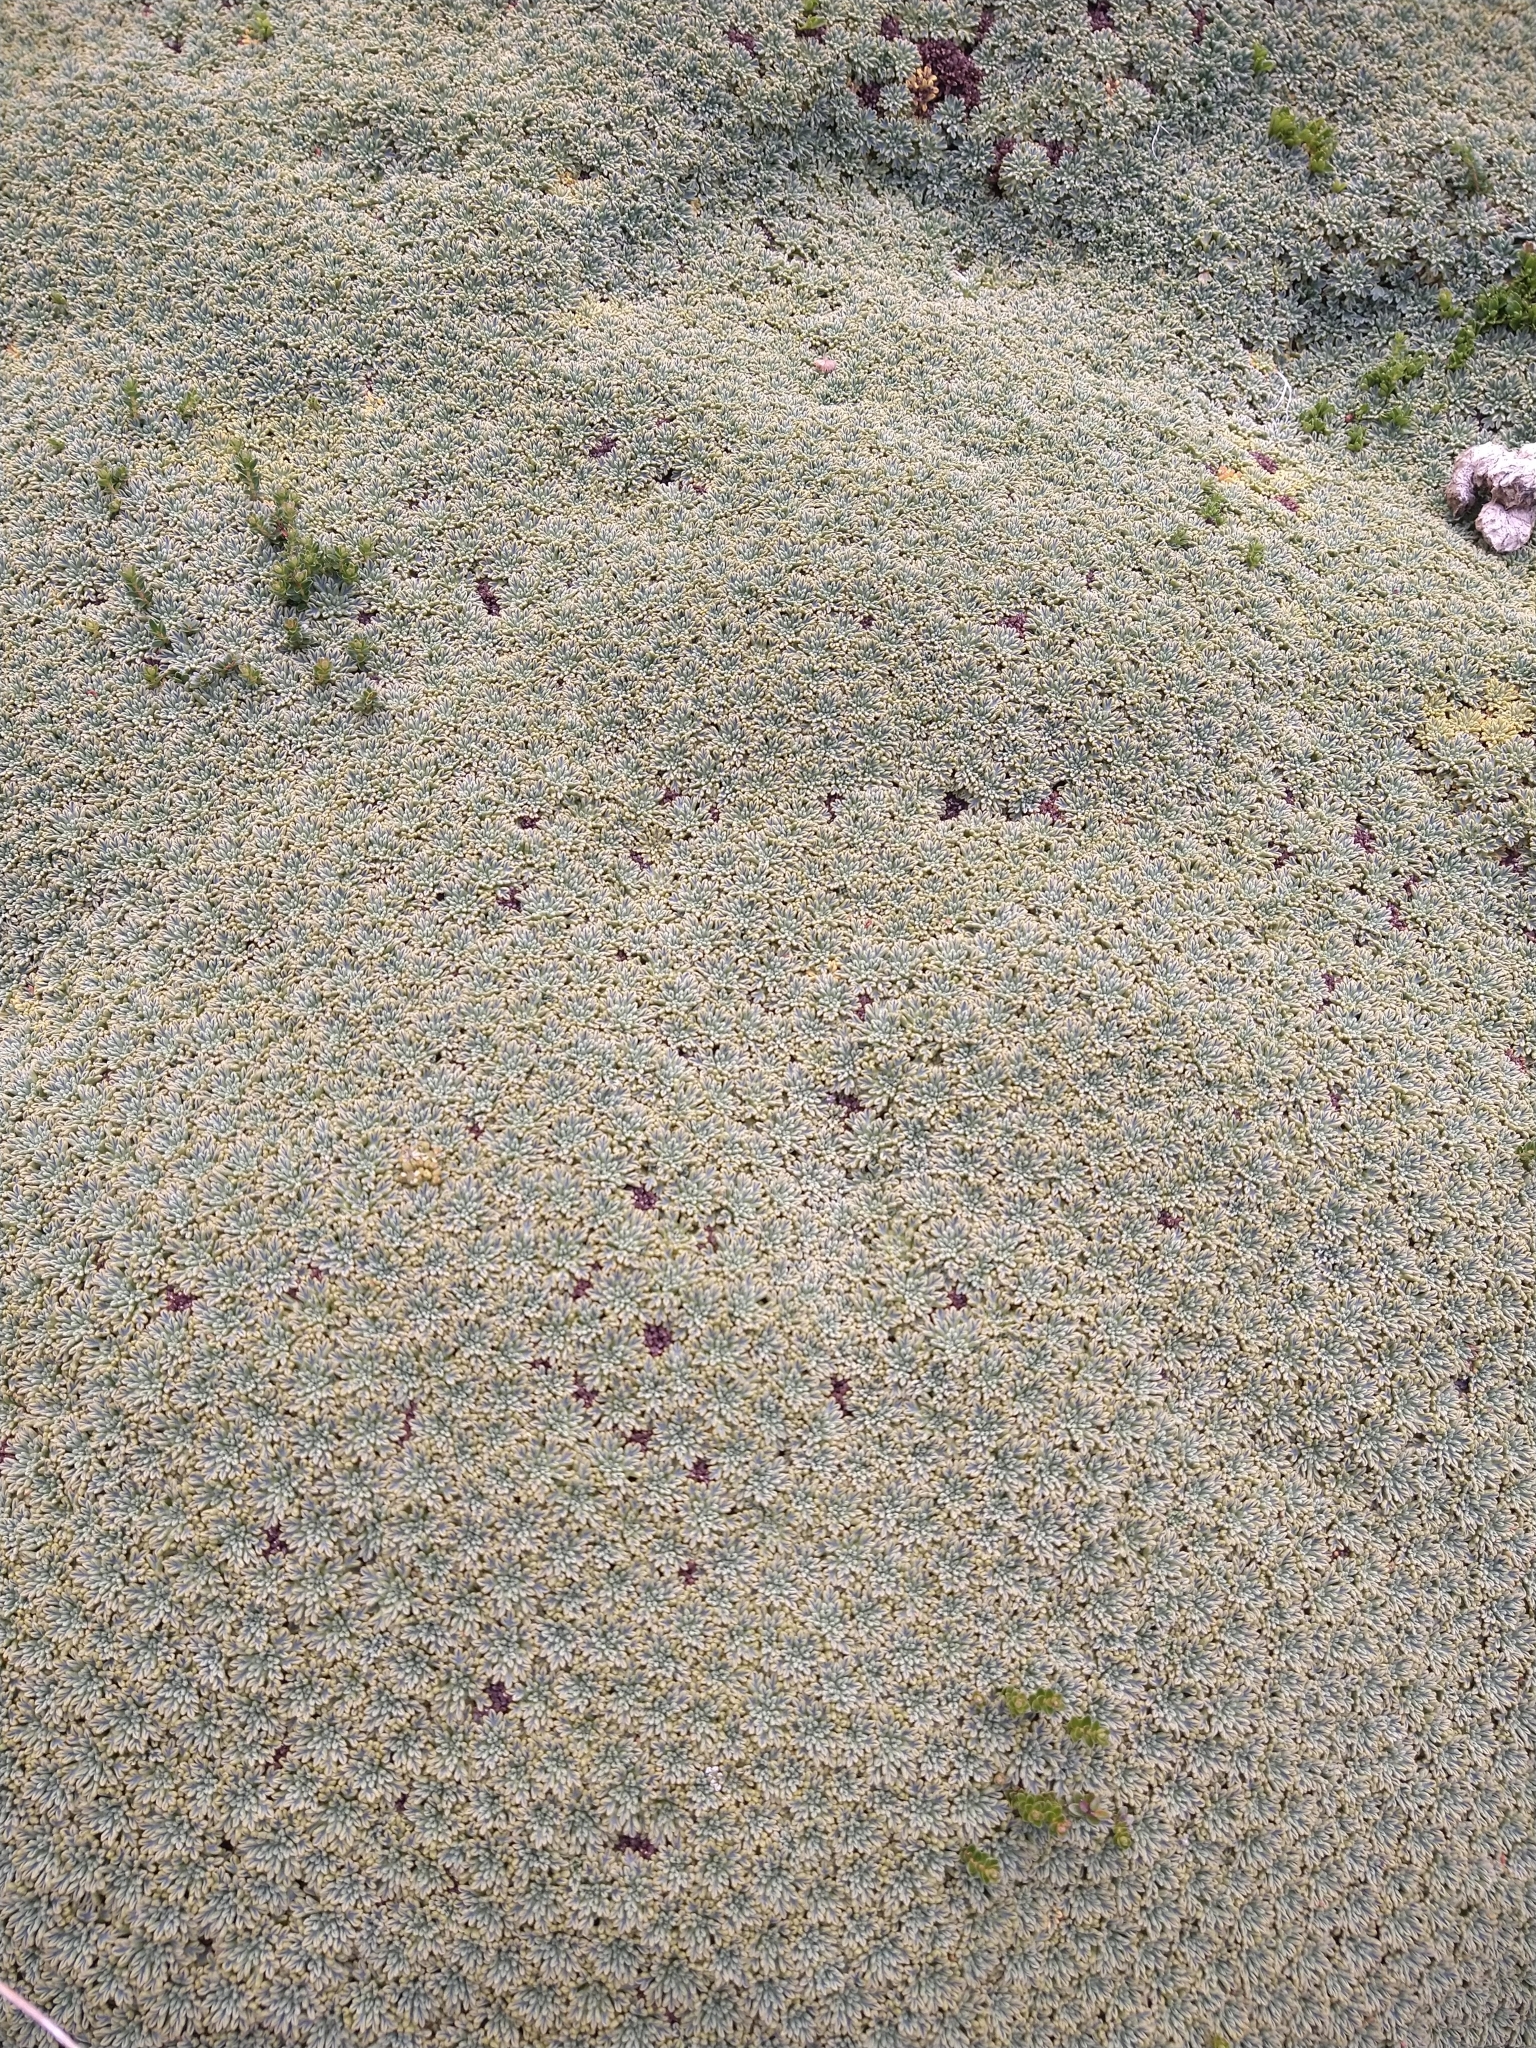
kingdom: Plantae
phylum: Tracheophyta
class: Magnoliopsida
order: Apiales
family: Apiaceae
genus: Bolax
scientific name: Bolax gummifera
